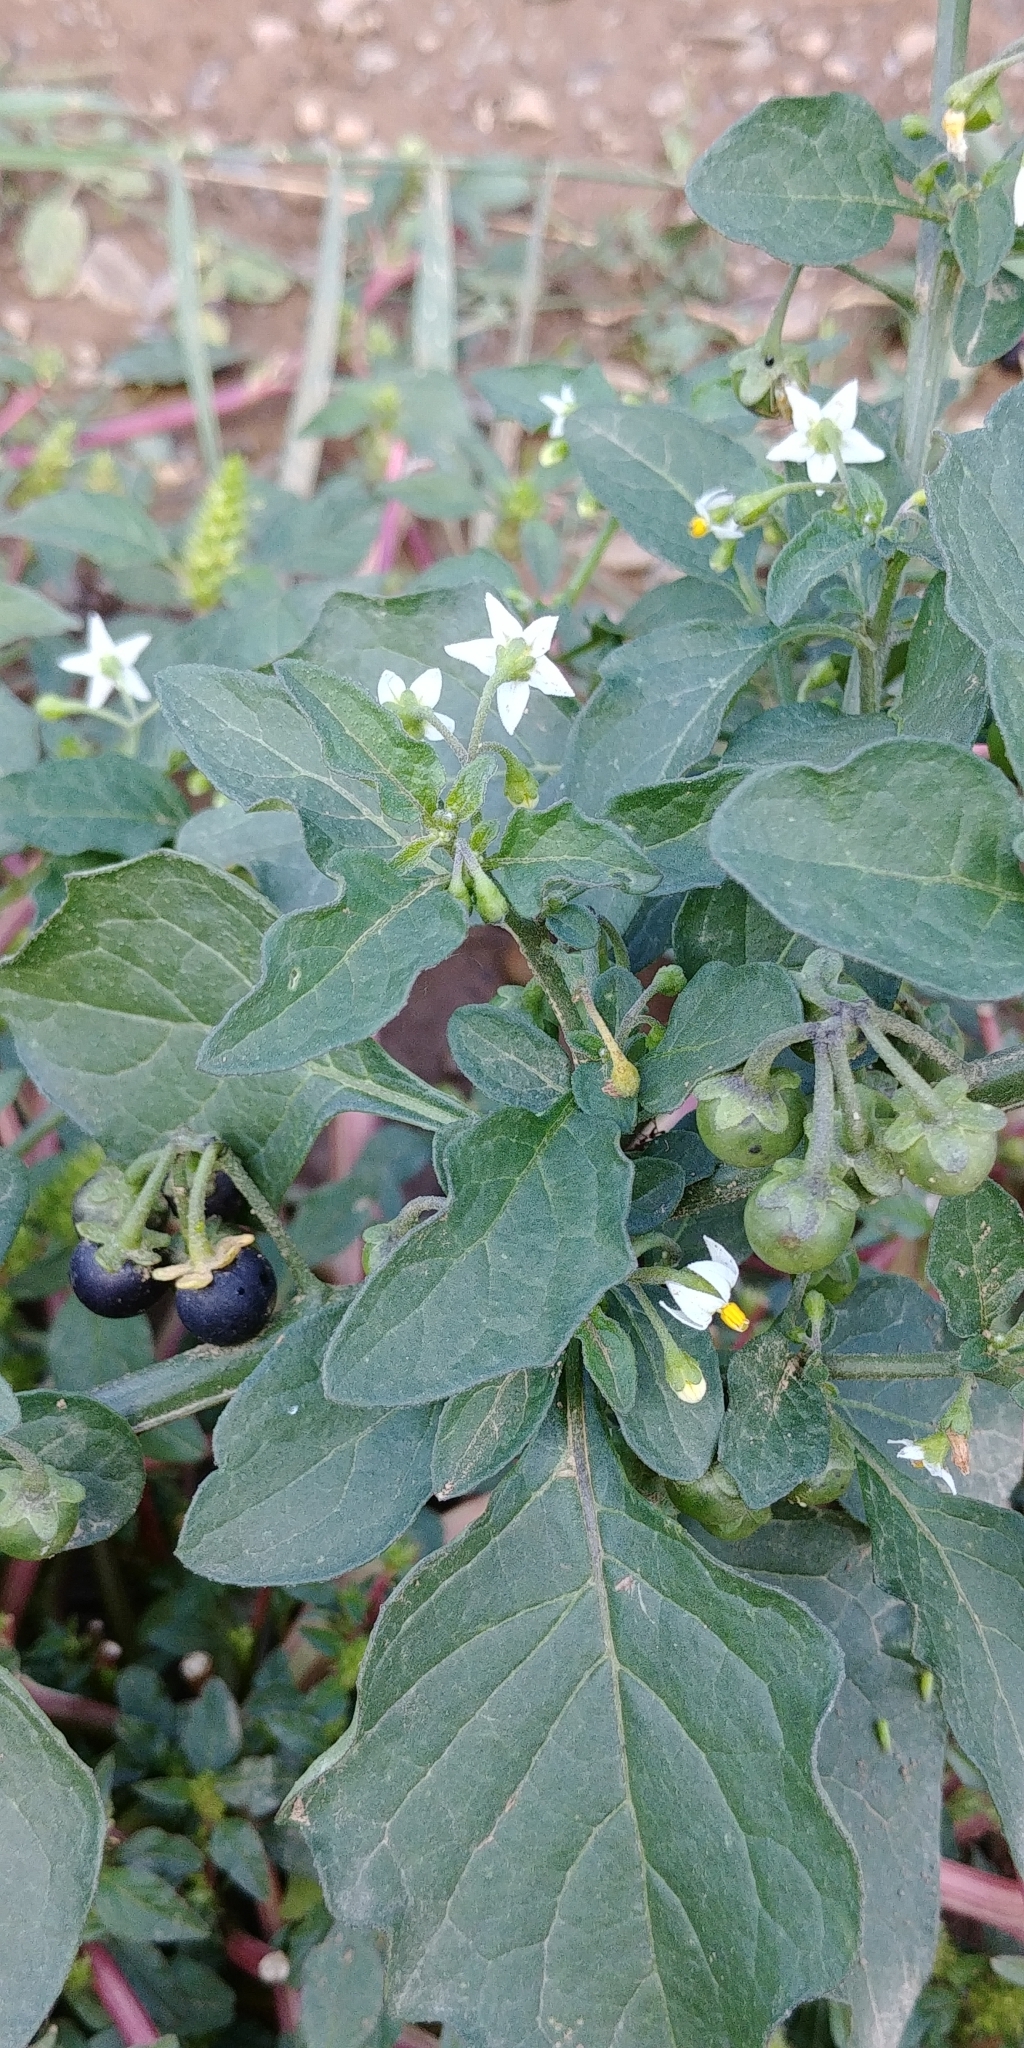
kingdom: Plantae
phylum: Tracheophyta
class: Magnoliopsida
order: Solanales
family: Solanaceae
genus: Solanum
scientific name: Solanum nigrum
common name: Black nightshade
